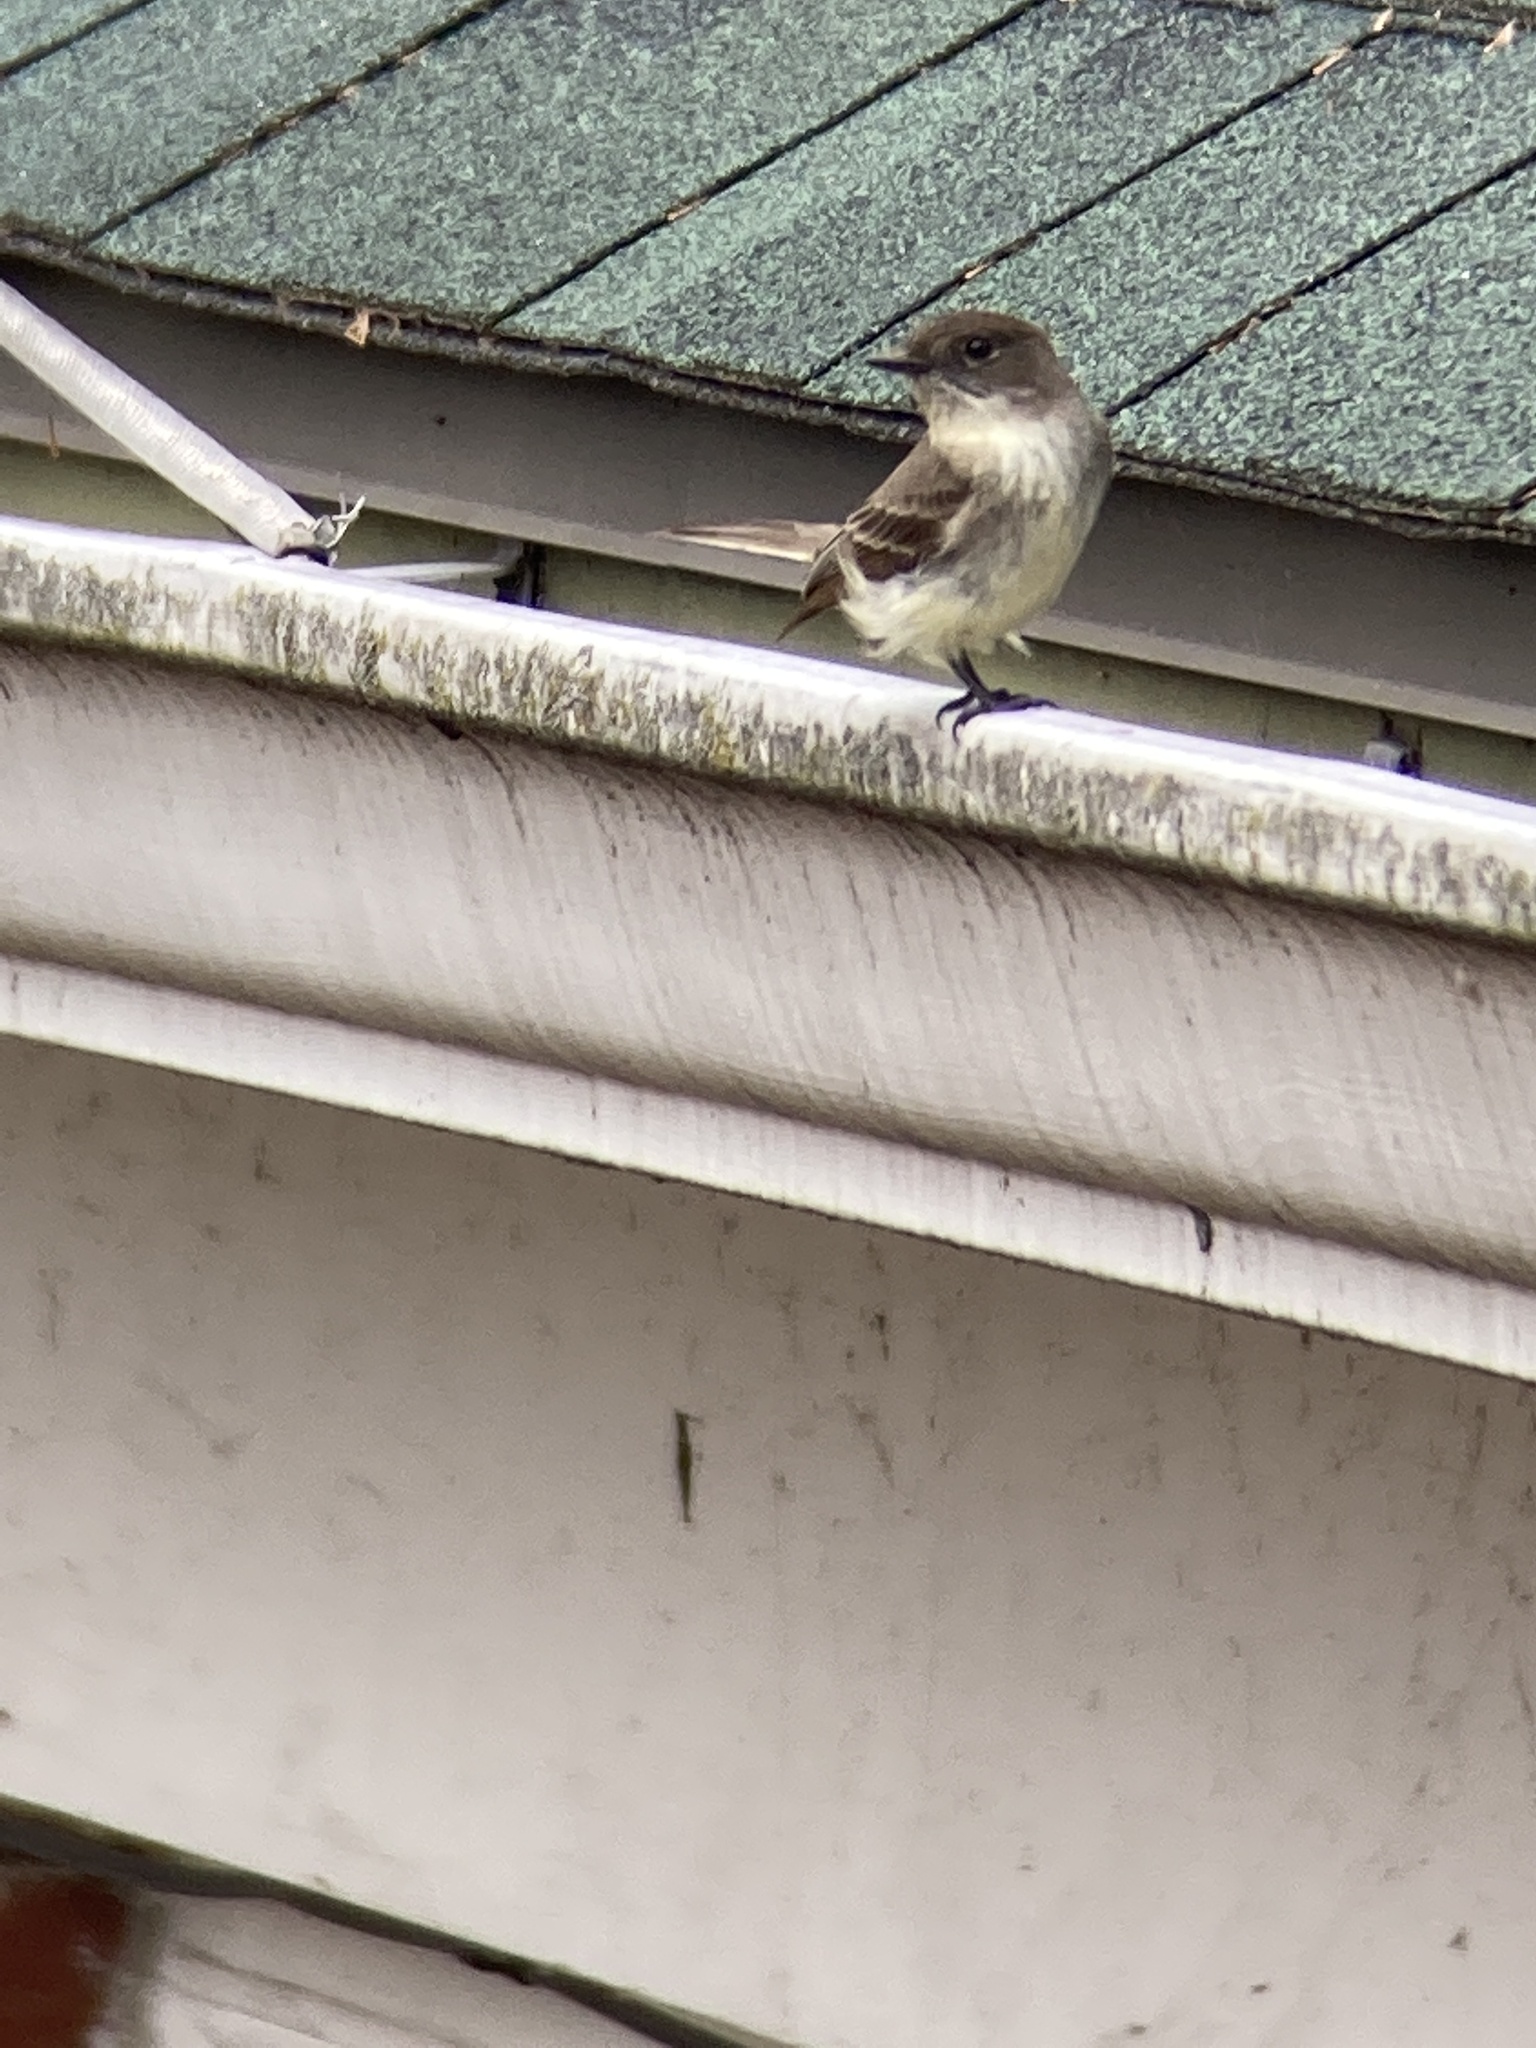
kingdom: Animalia
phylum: Chordata
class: Aves
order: Passeriformes
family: Tyrannidae
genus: Sayornis
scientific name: Sayornis phoebe
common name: Eastern phoebe
